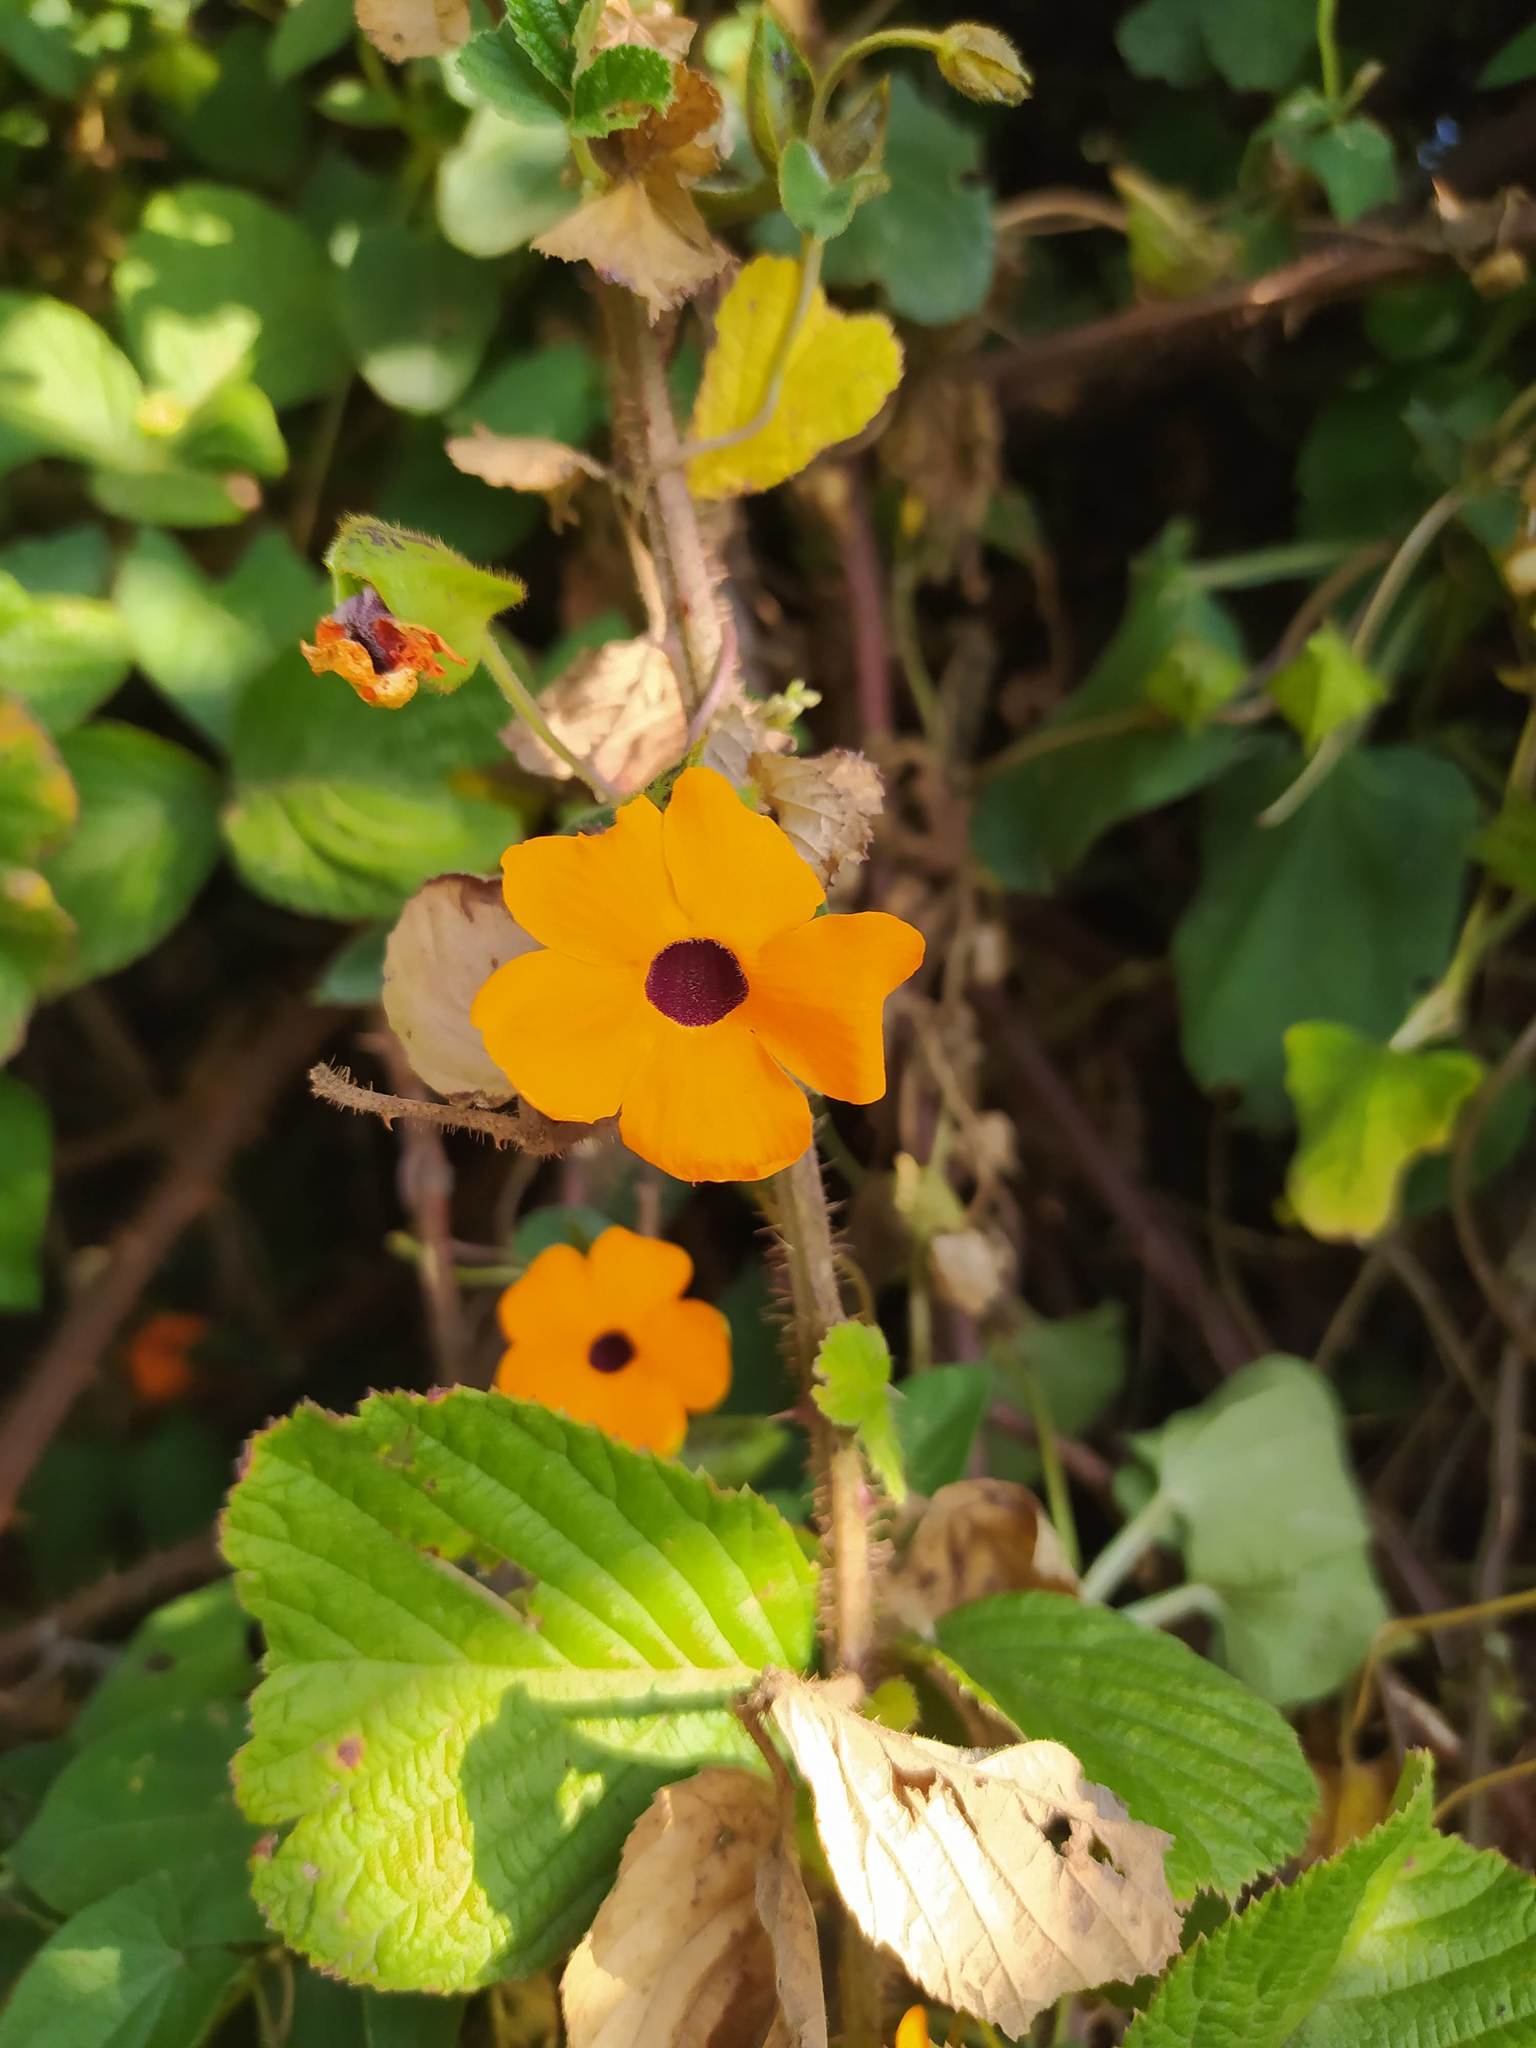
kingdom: Plantae
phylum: Tracheophyta
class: Magnoliopsida
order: Lamiales
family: Acanthaceae
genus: Thunbergia
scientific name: Thunbergia alata
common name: Blackeyed susan vine
